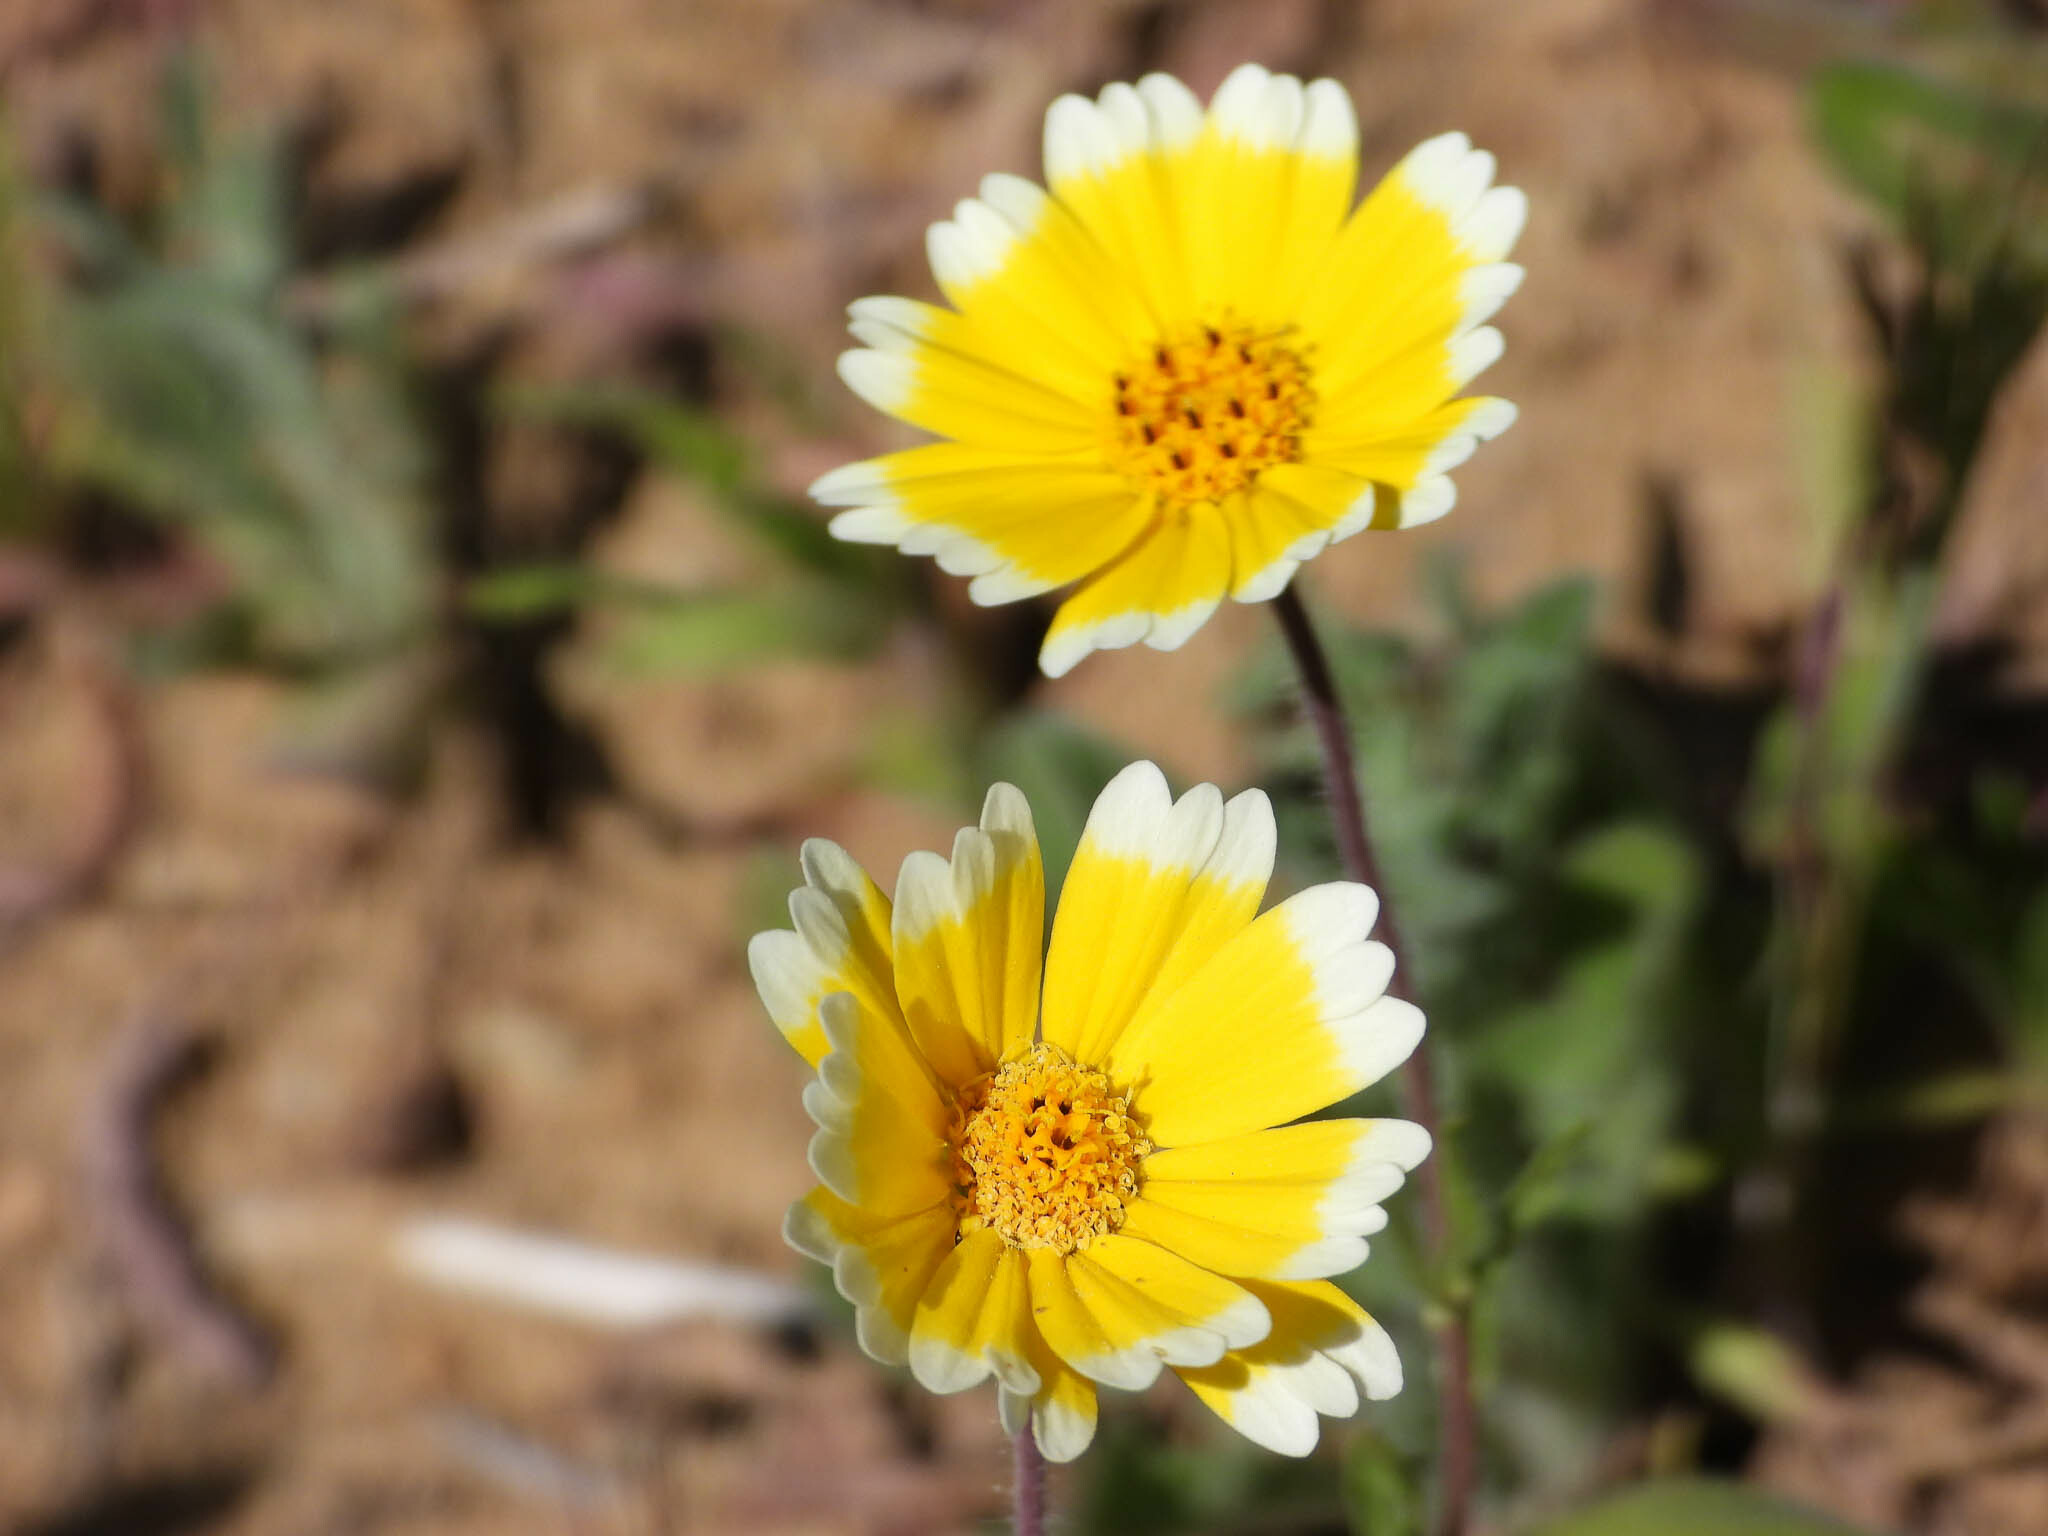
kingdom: Plantae
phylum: Tracheophyta
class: Magnoliopsida
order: Asterales
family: Asteraceae
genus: Layia
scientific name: Layia platyglossa
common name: Tidy-tips
